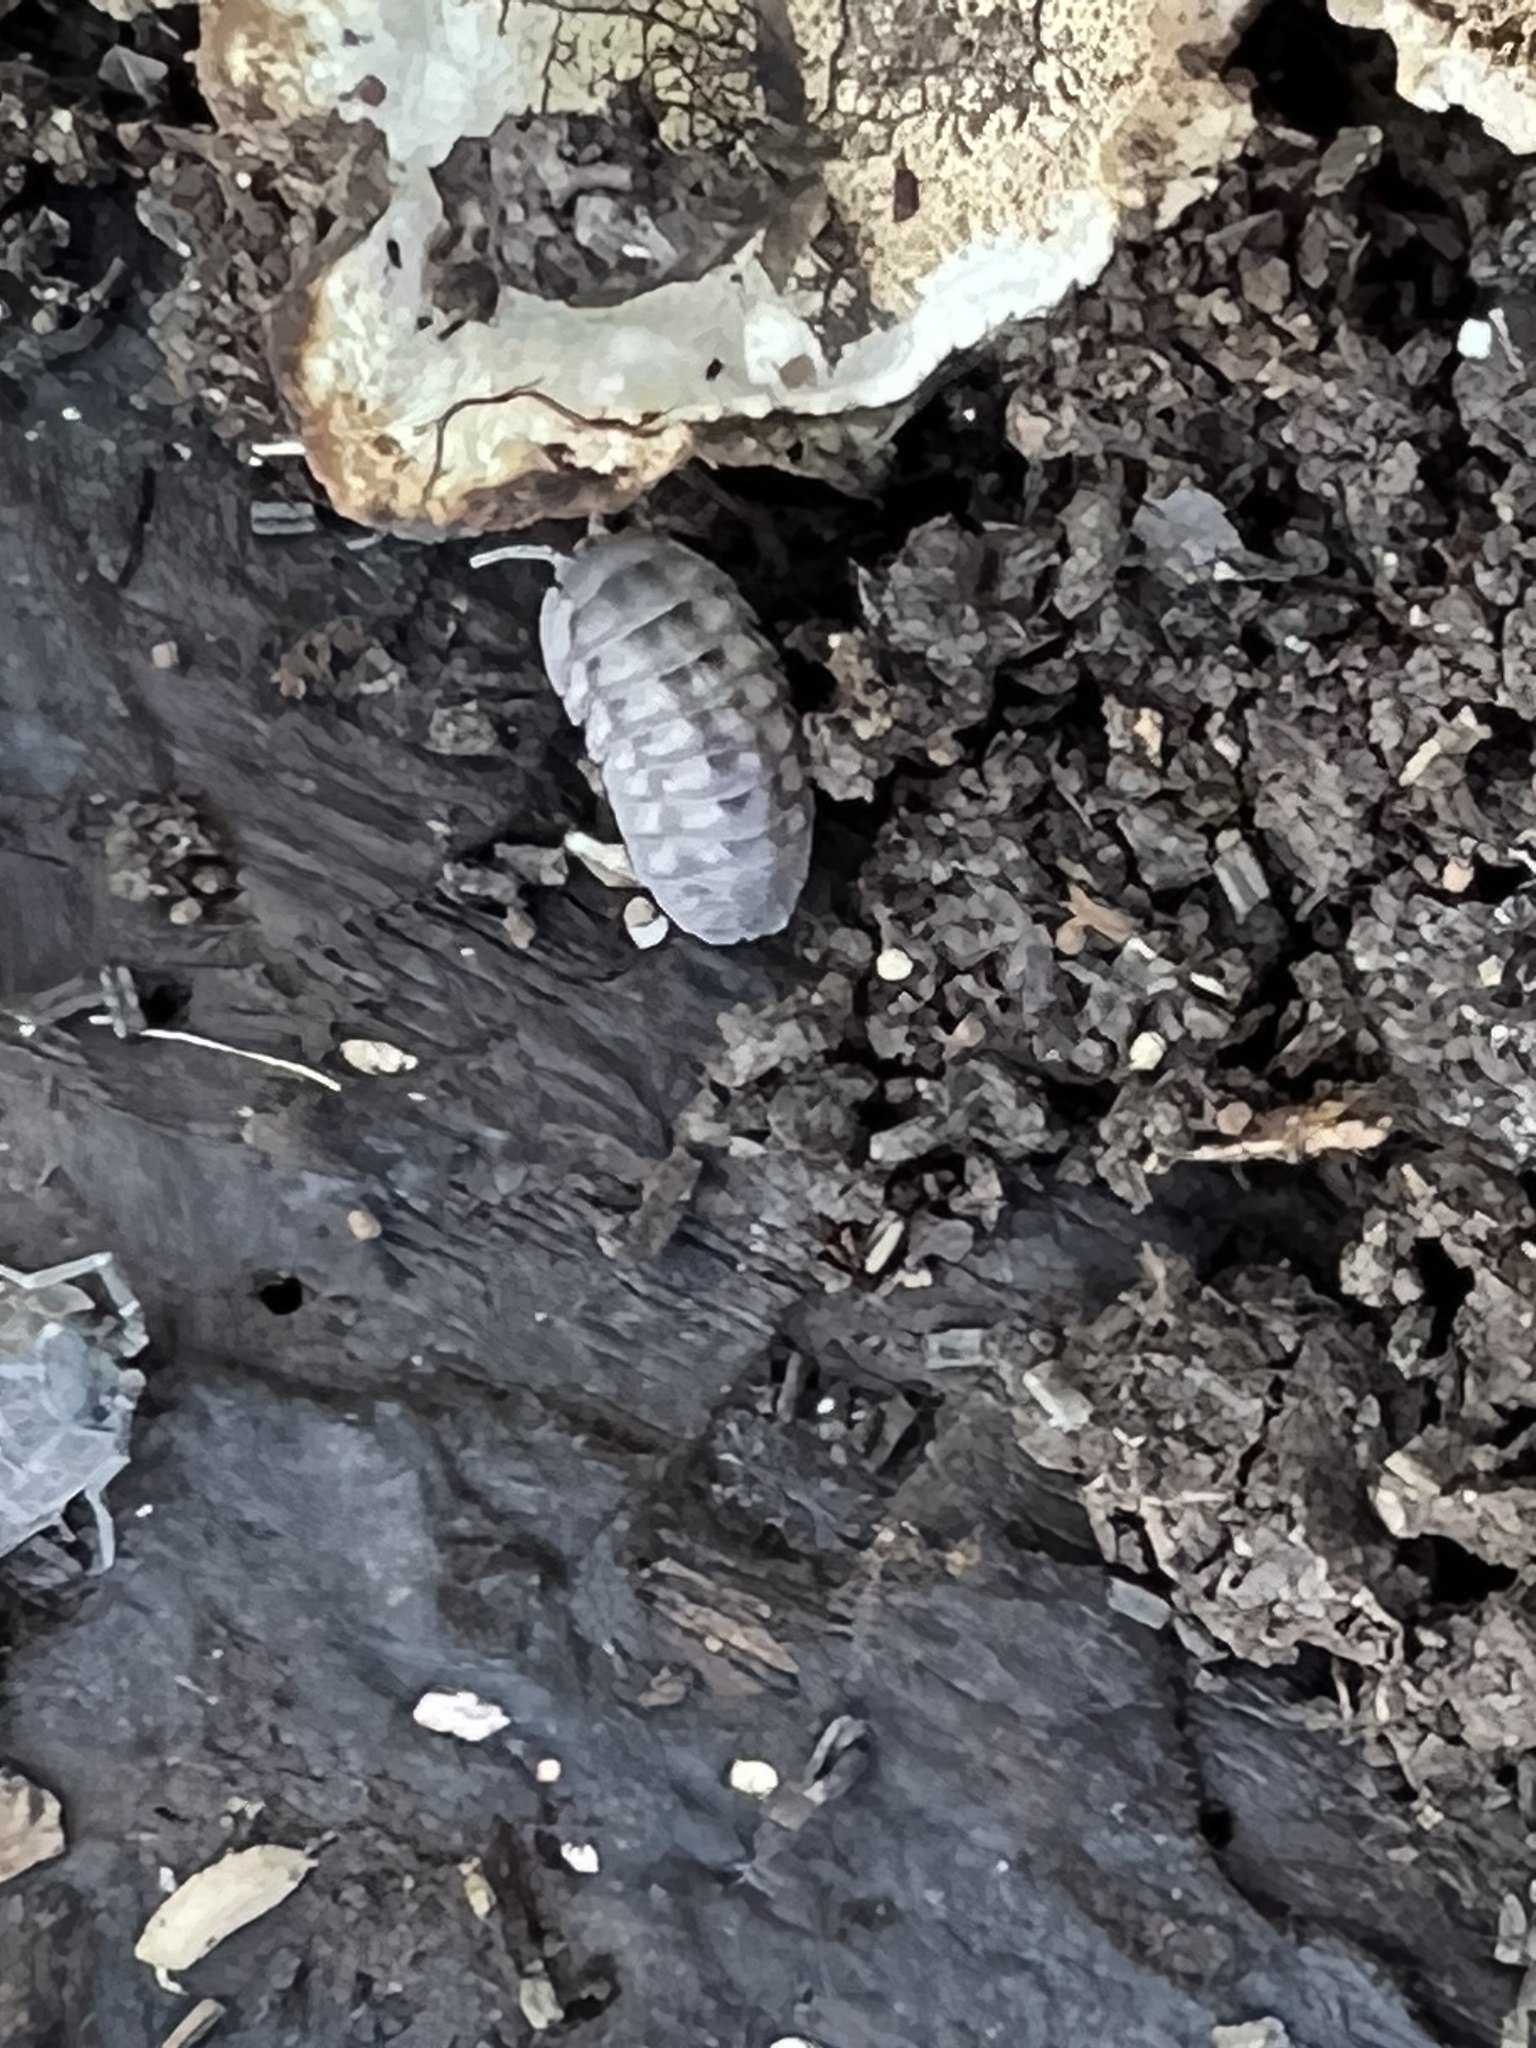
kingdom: Animalia
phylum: Arthropoda
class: Malacostraca
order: Isopoda
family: Armadillidiidae
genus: Armadillidium
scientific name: Armadillidium nasatum
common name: Isopod
